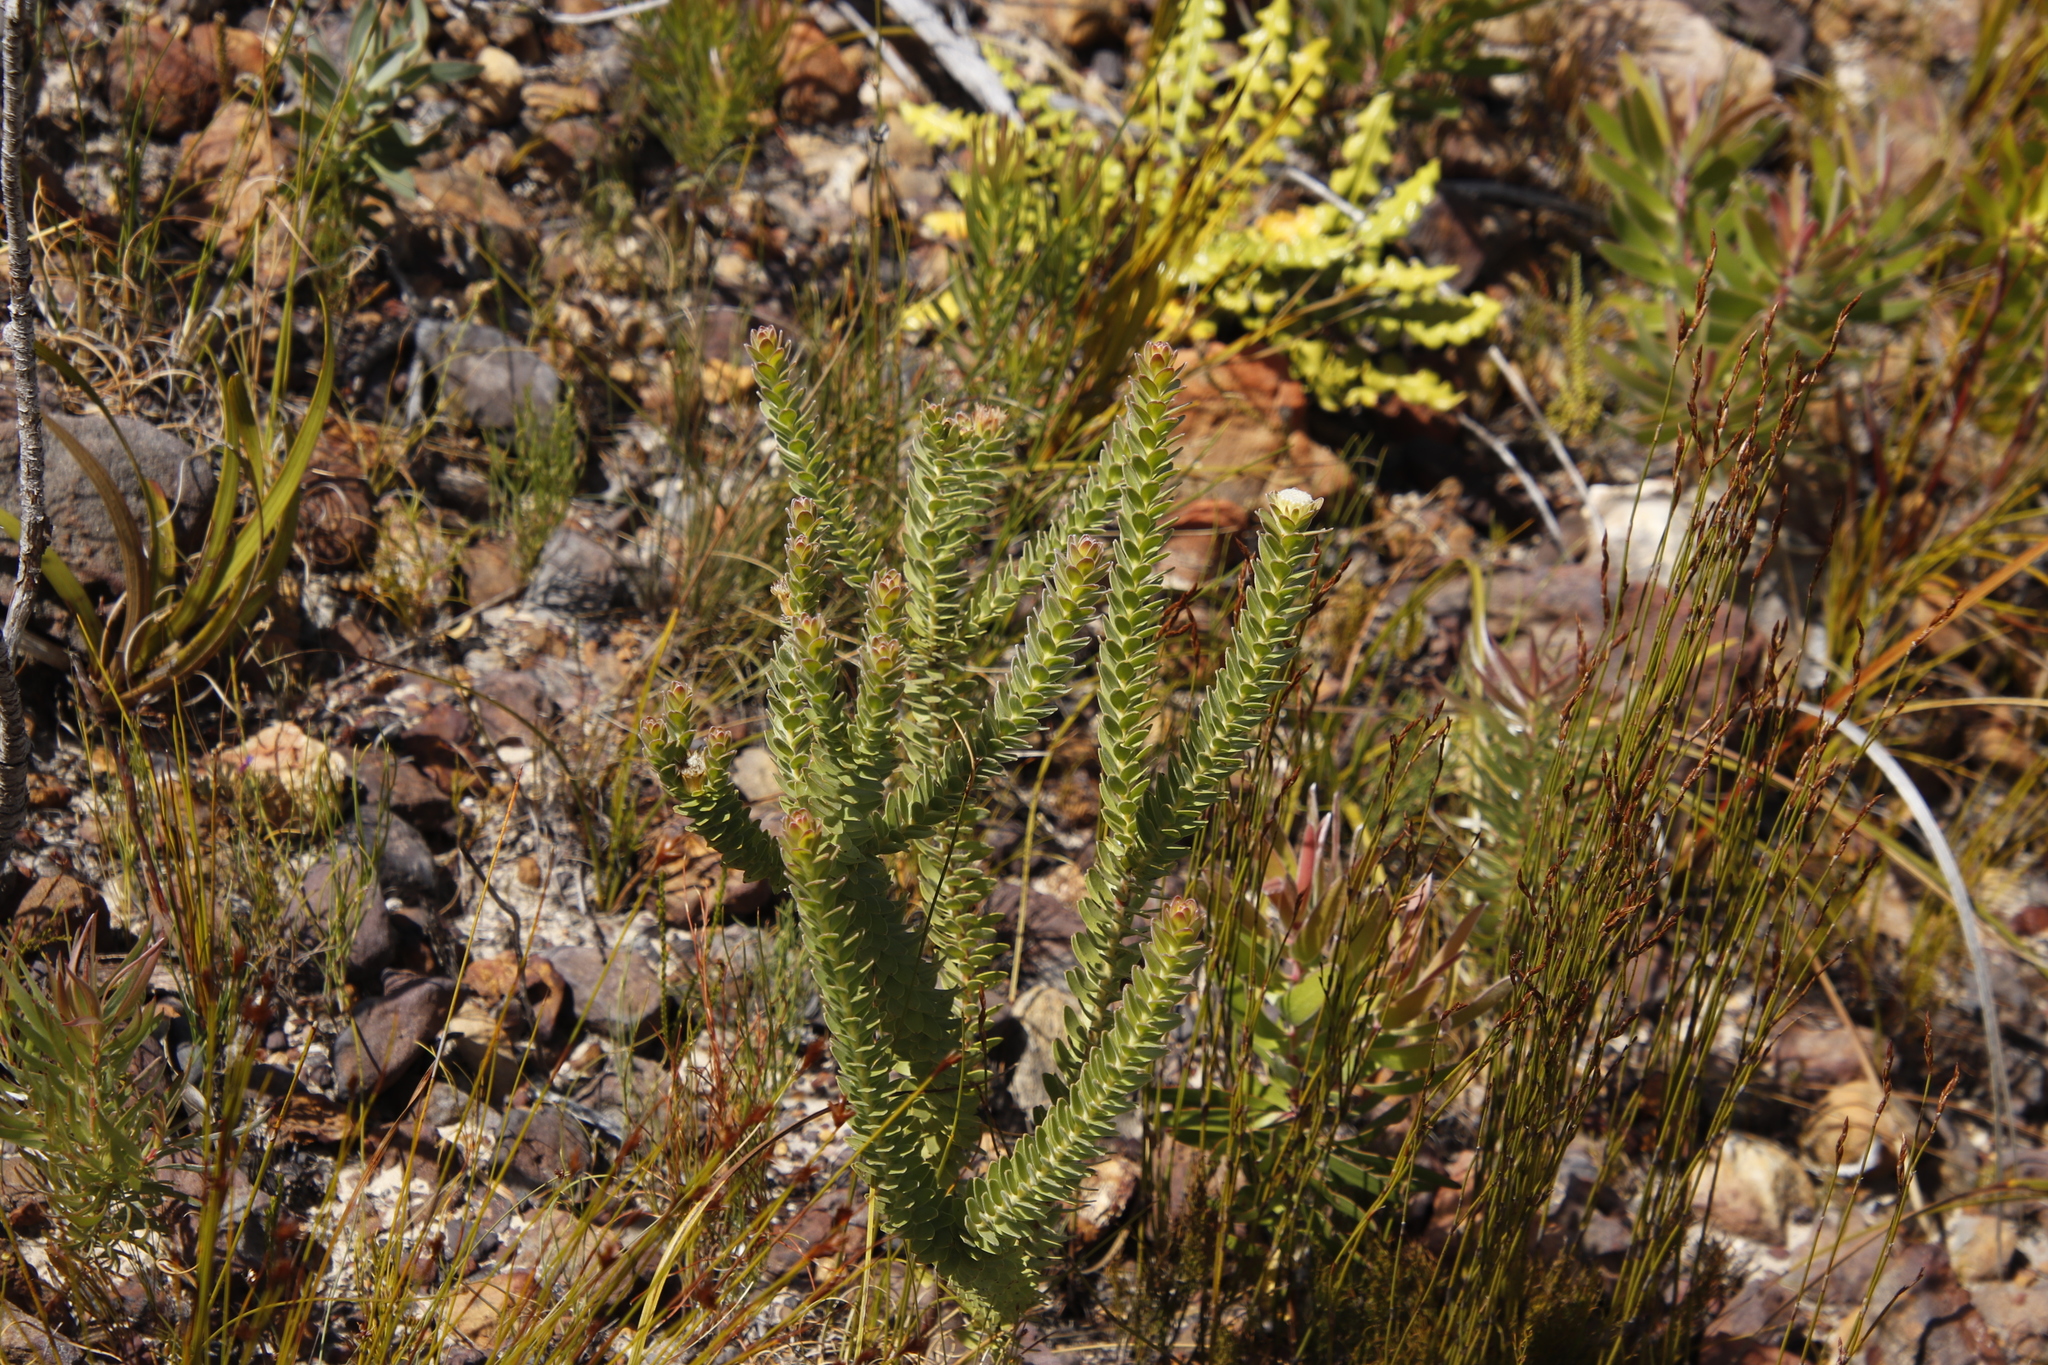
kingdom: Plantae
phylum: Tracheophyta
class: Magnoliopsida
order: Proteales
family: Proteaceae
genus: Diastella
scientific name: Diastella thymelaeoides
